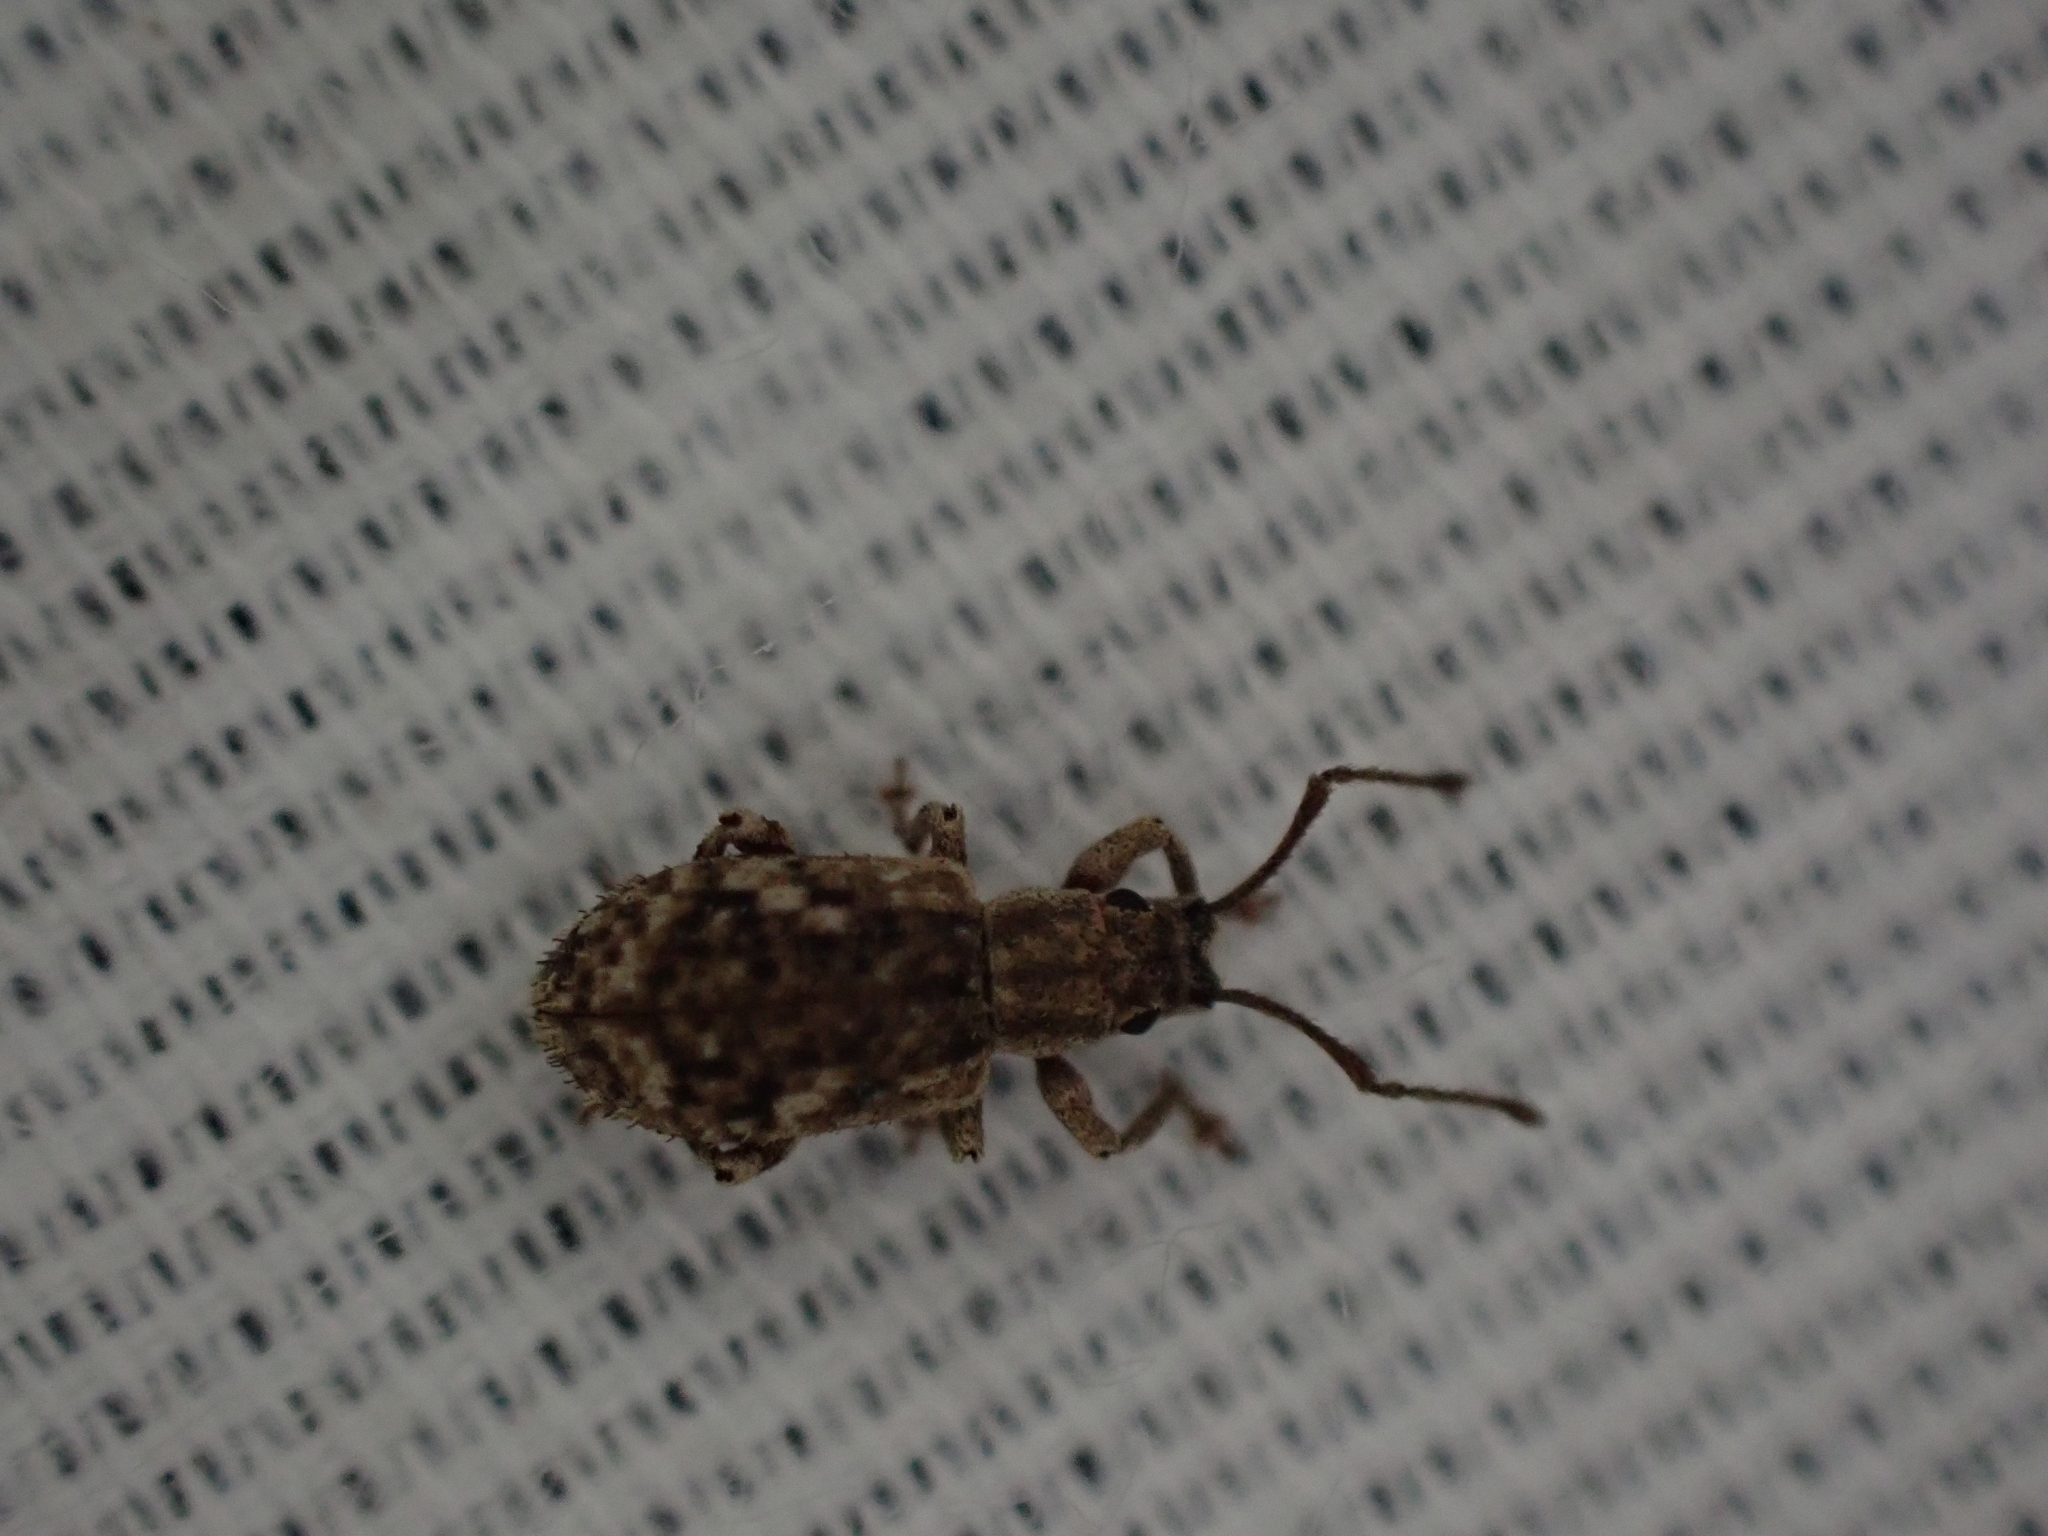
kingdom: Animalia
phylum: Arthropoda
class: Insecta
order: Coleoptera
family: Curculionidae
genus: Pseudoedophrys
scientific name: Pseudoedophrys hilleri
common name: Weevil
